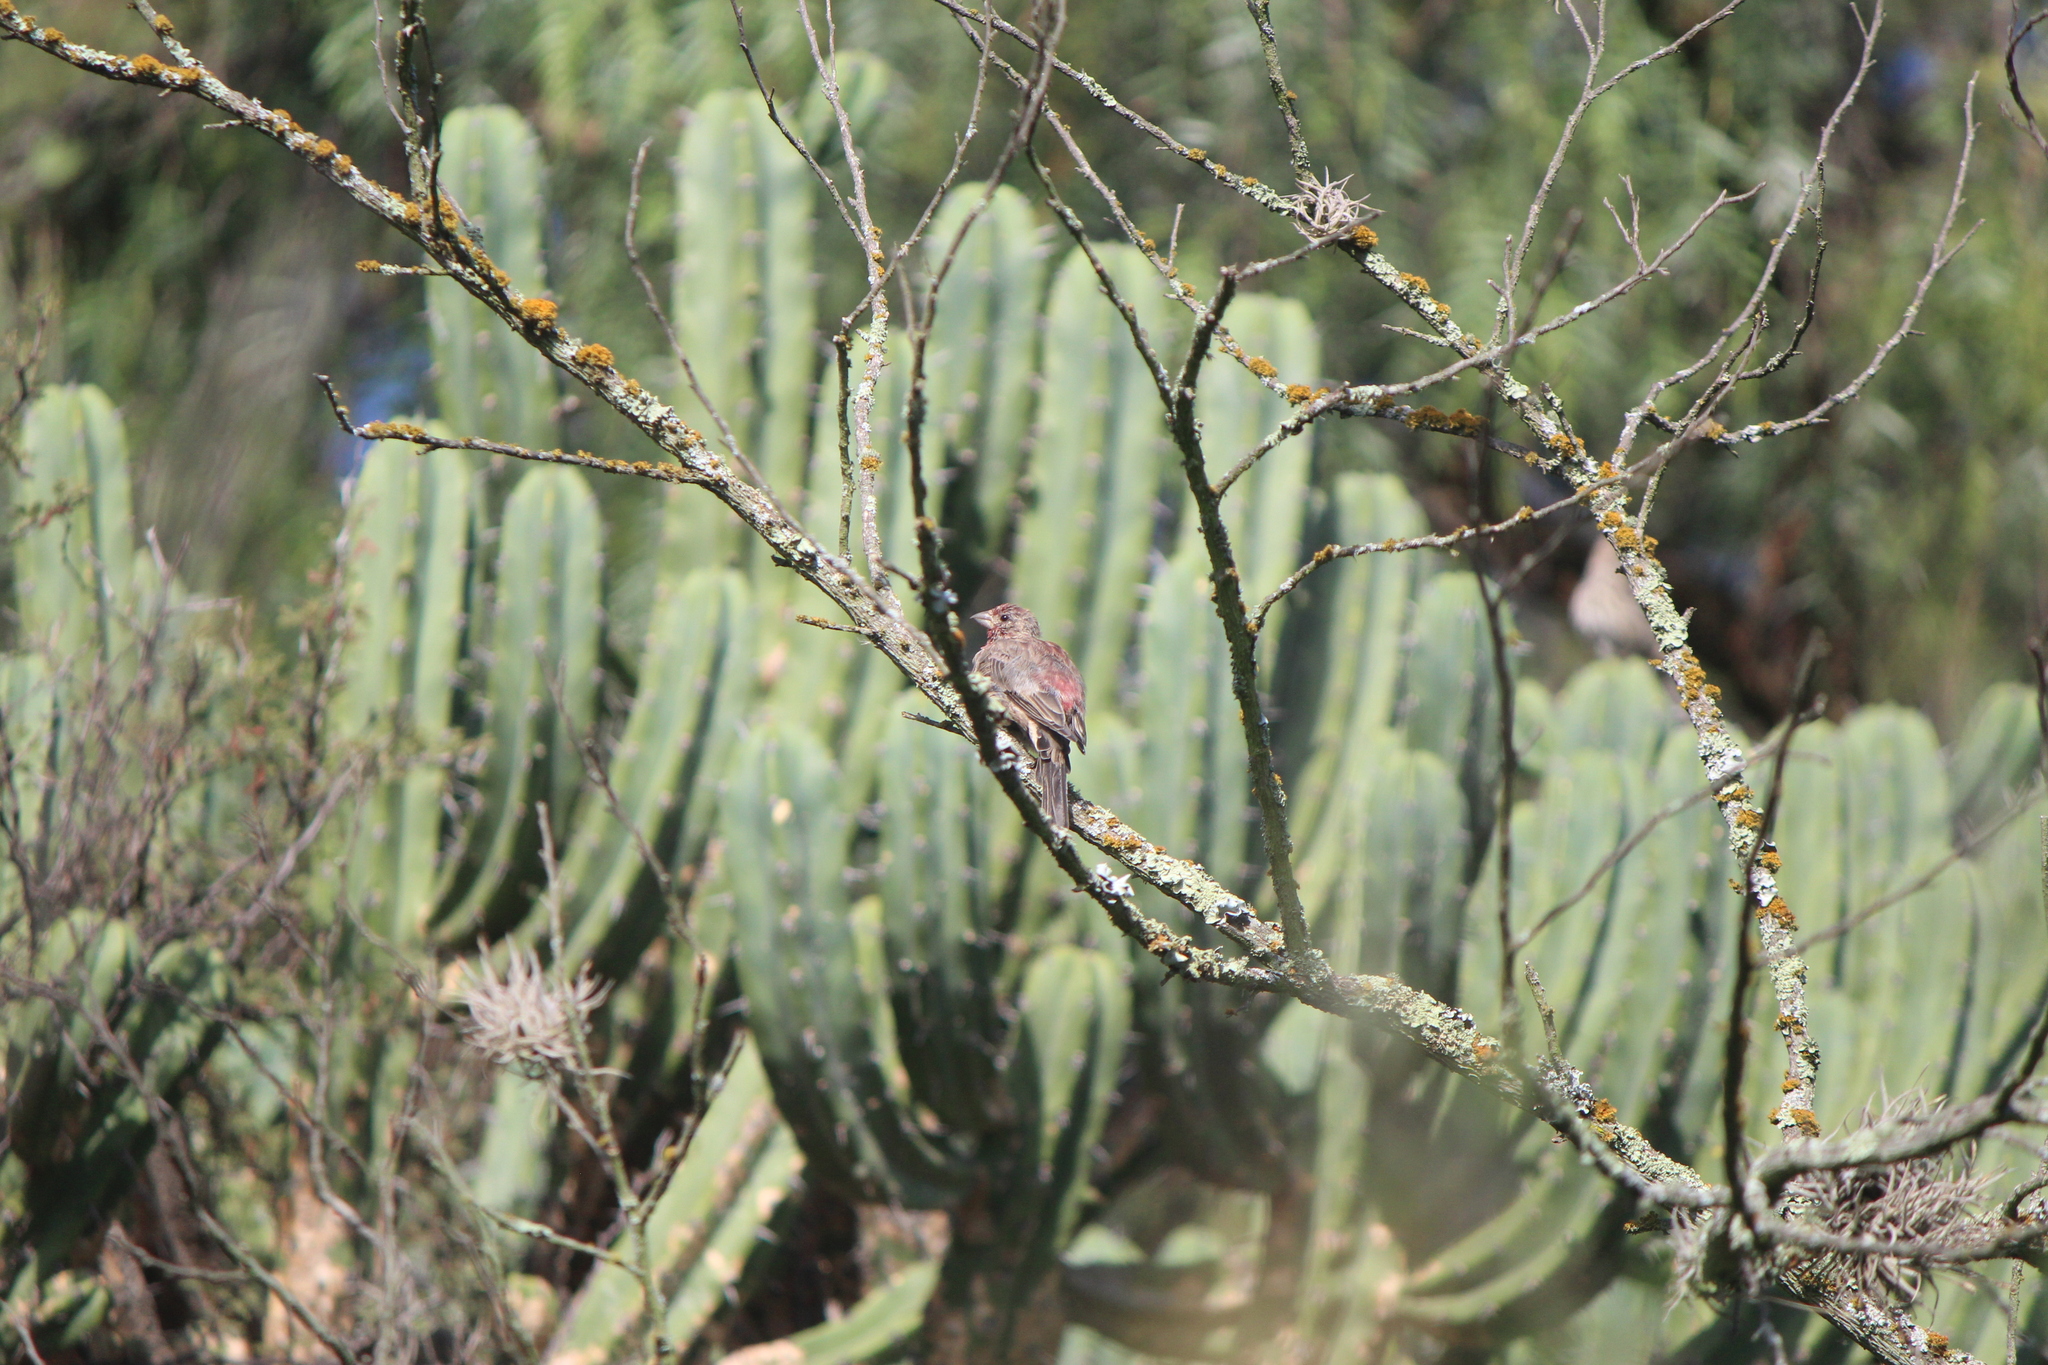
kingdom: Animalia
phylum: Chordata
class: Aves
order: Passeriformes
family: Fringillidae
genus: Haemorhous
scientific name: Haemorhous mexicanus
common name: House finch
